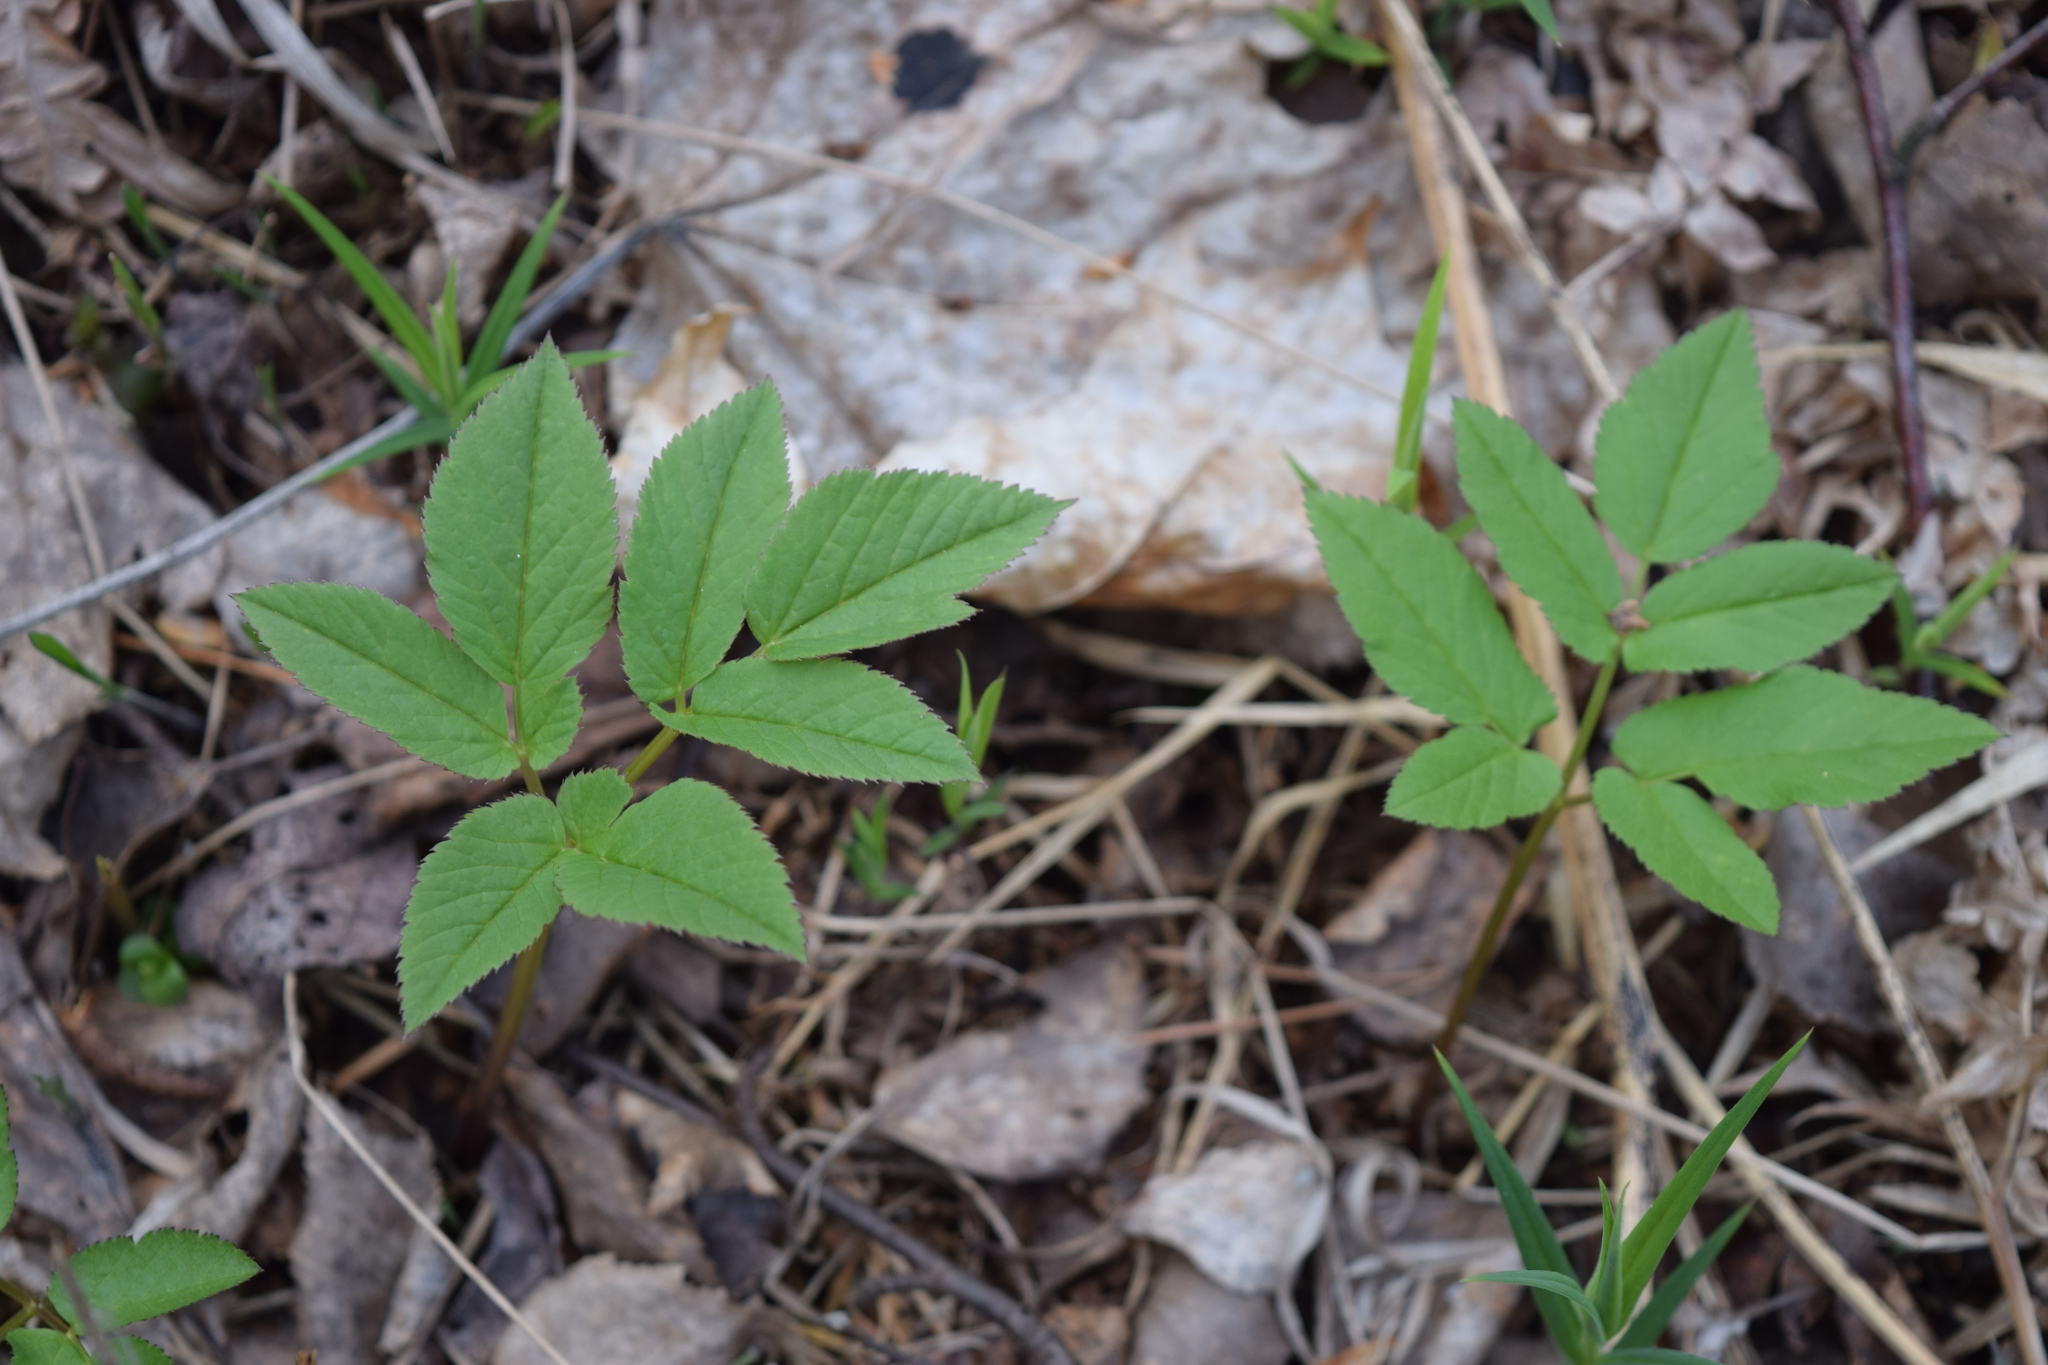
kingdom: Plantae
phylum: Tracheophyta
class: Magnoliopsida
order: Apiales
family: Apiaceae
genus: Aegopodium
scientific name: Aegopodium podagraria
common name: Ground-elder
